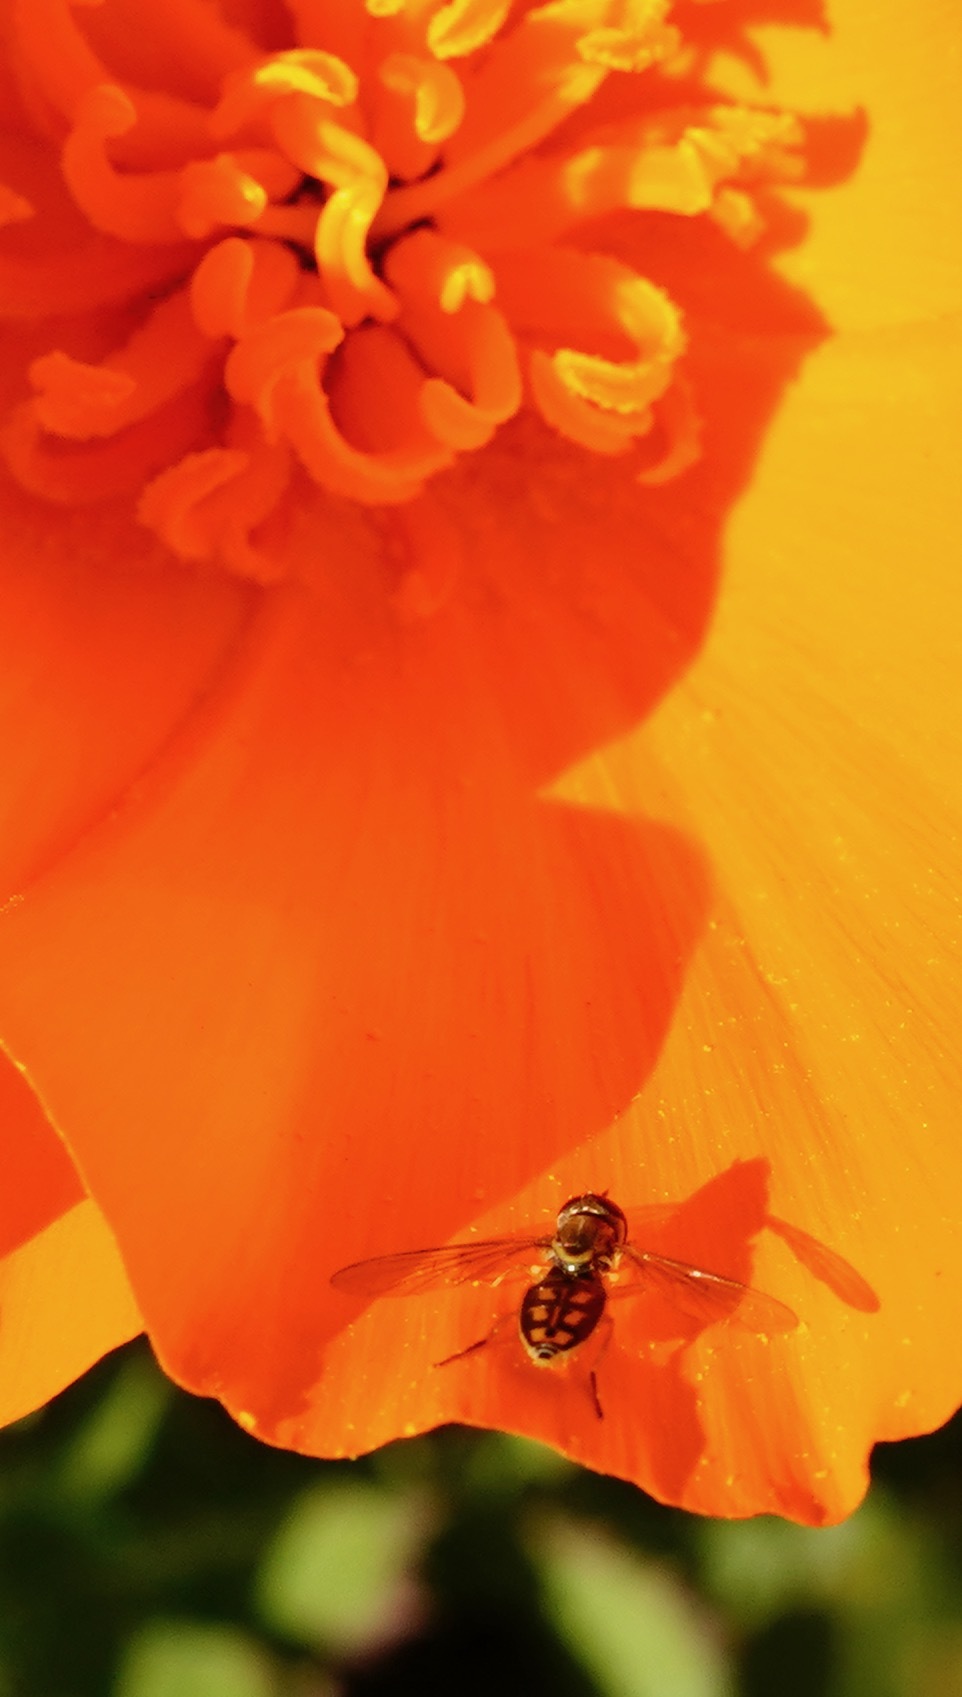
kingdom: Animalia
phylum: Arthropoda
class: Insecta
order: Diptera
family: Syrphidae
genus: Toxomerus
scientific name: Toxomerus marginatus
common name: Syrphid fly
